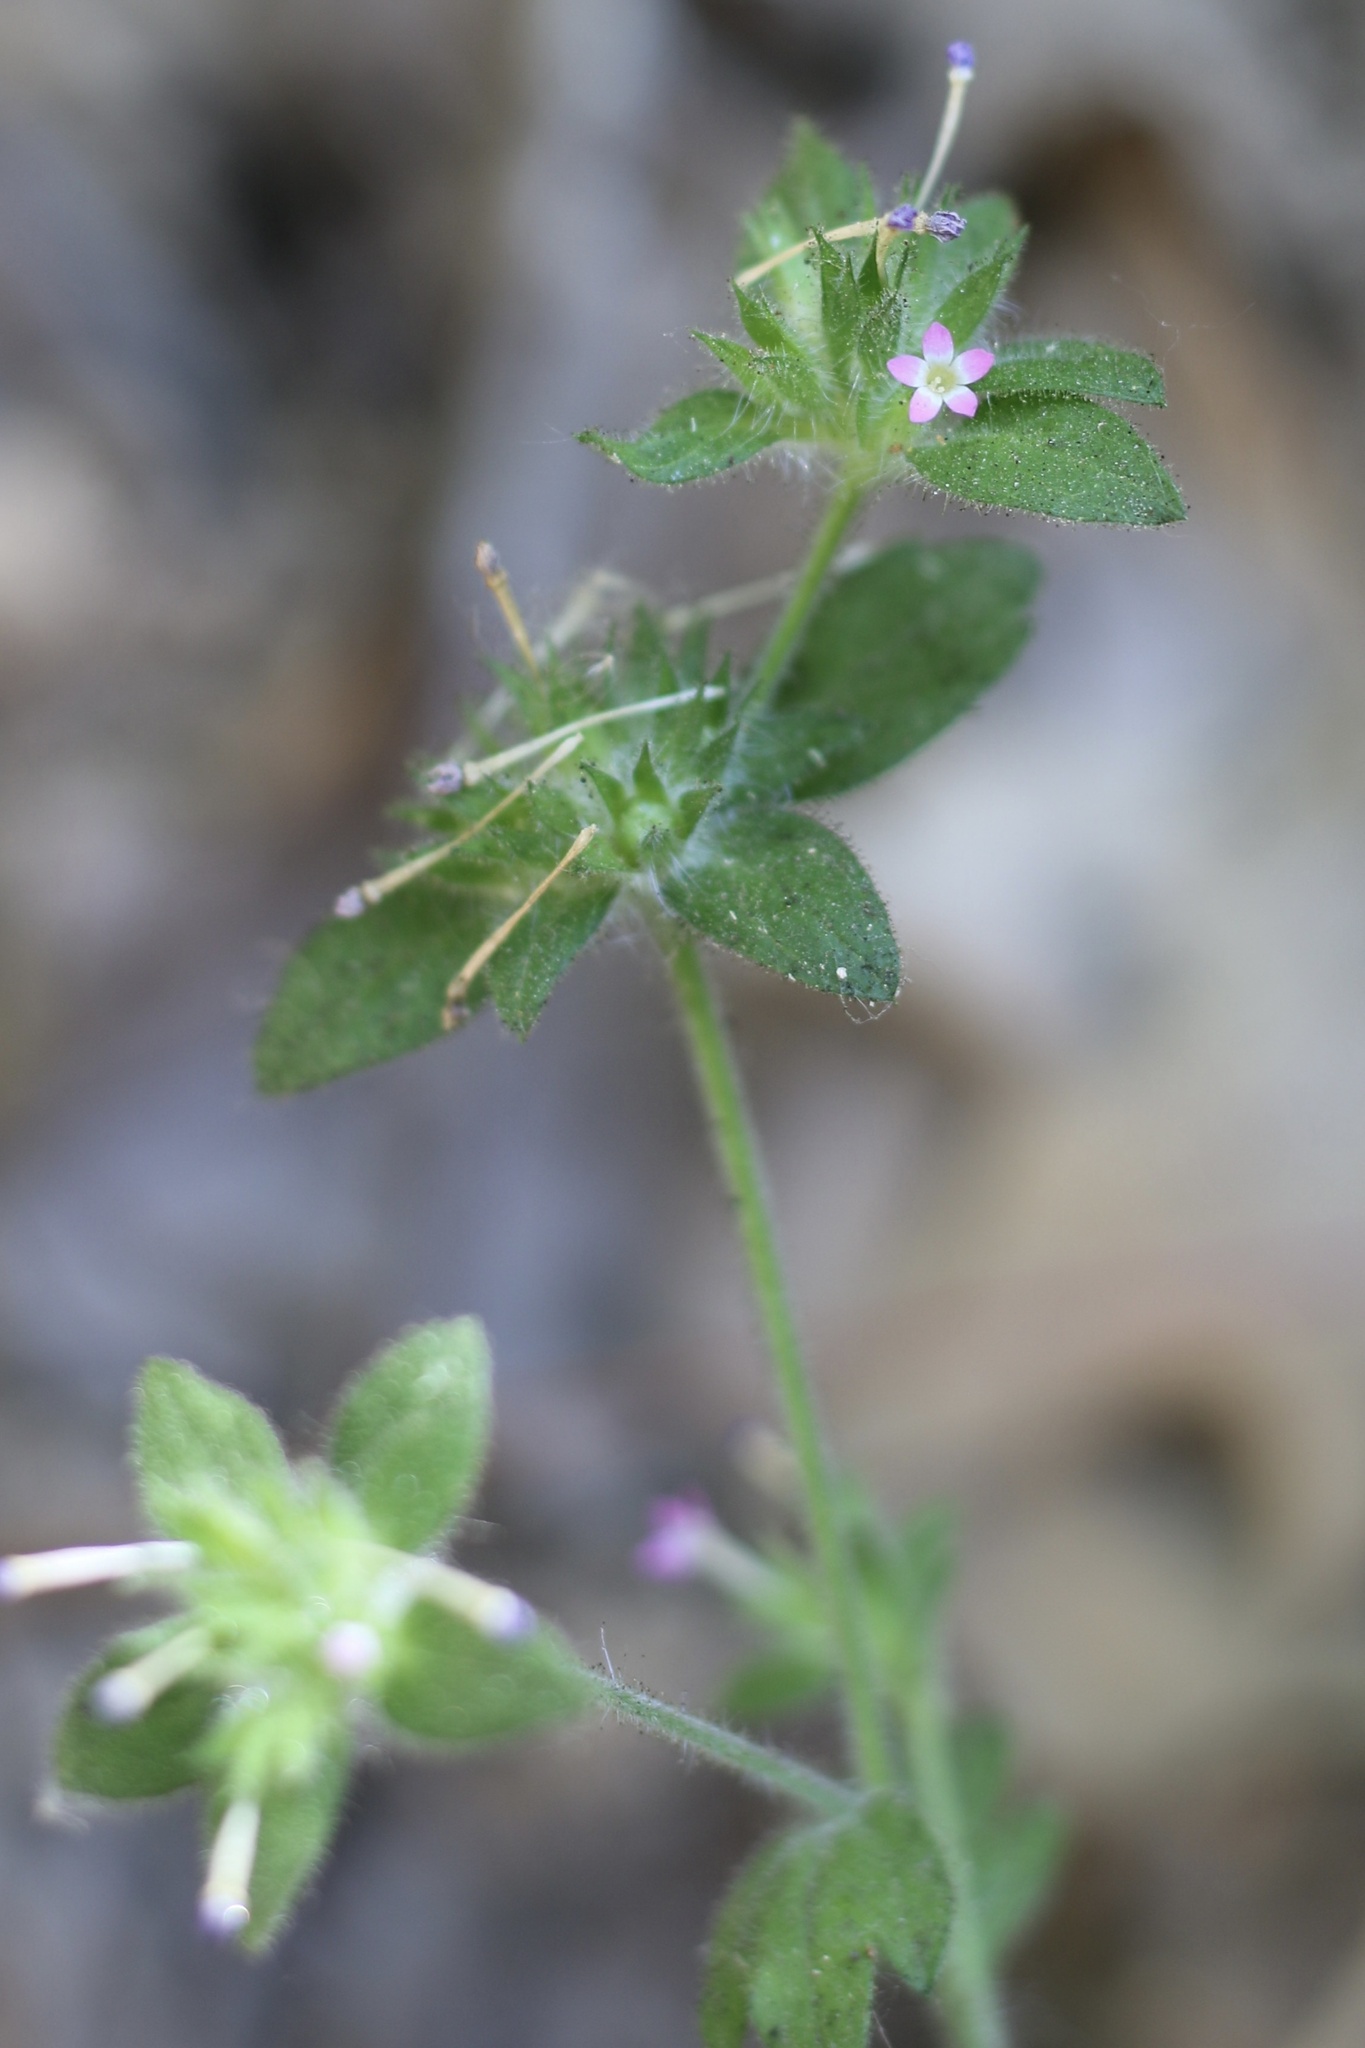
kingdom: Plantae
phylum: Tracheophyta
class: Magnoliopsida
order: Ericales
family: Polemoniaceae
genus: Collomia
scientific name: Collomia heterophylla
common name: Variable-leaved collomia
